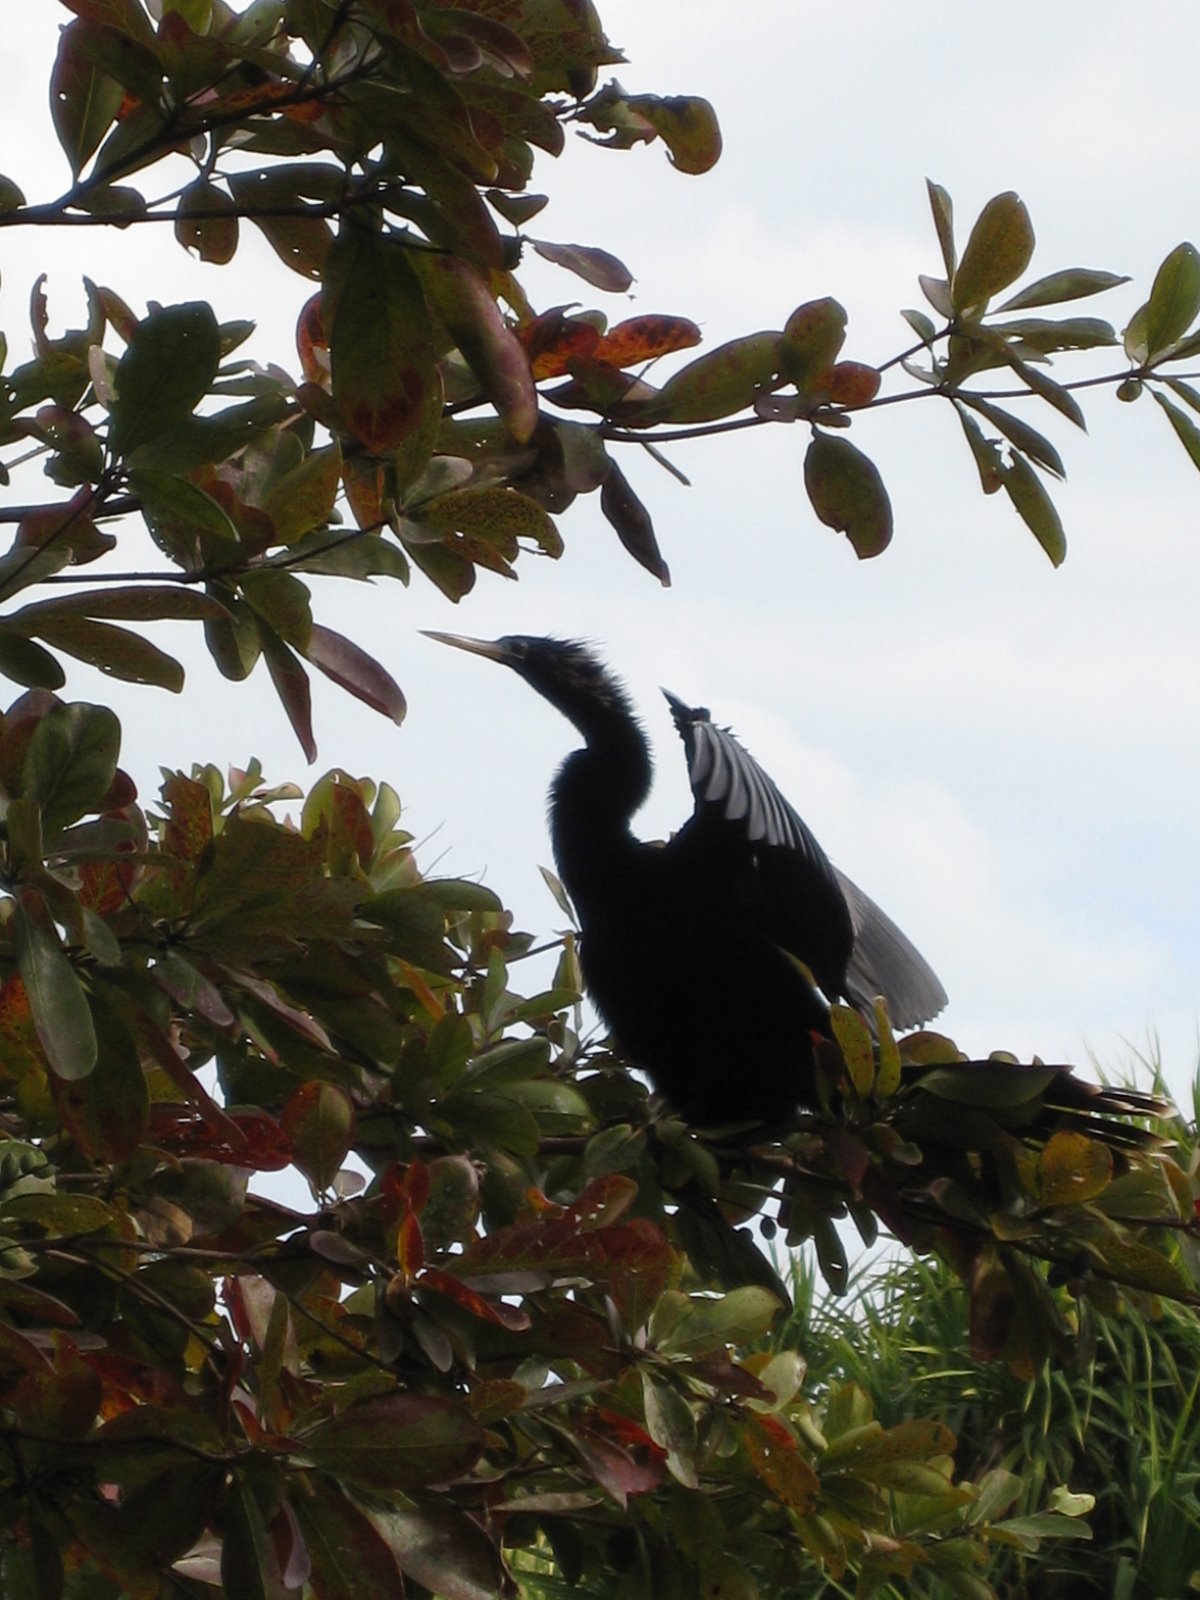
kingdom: Animalia
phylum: Chordata
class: Aves
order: Suliformes
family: Anhingidae
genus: Anhinga
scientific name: Anhinga anhinga
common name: Anhinga
